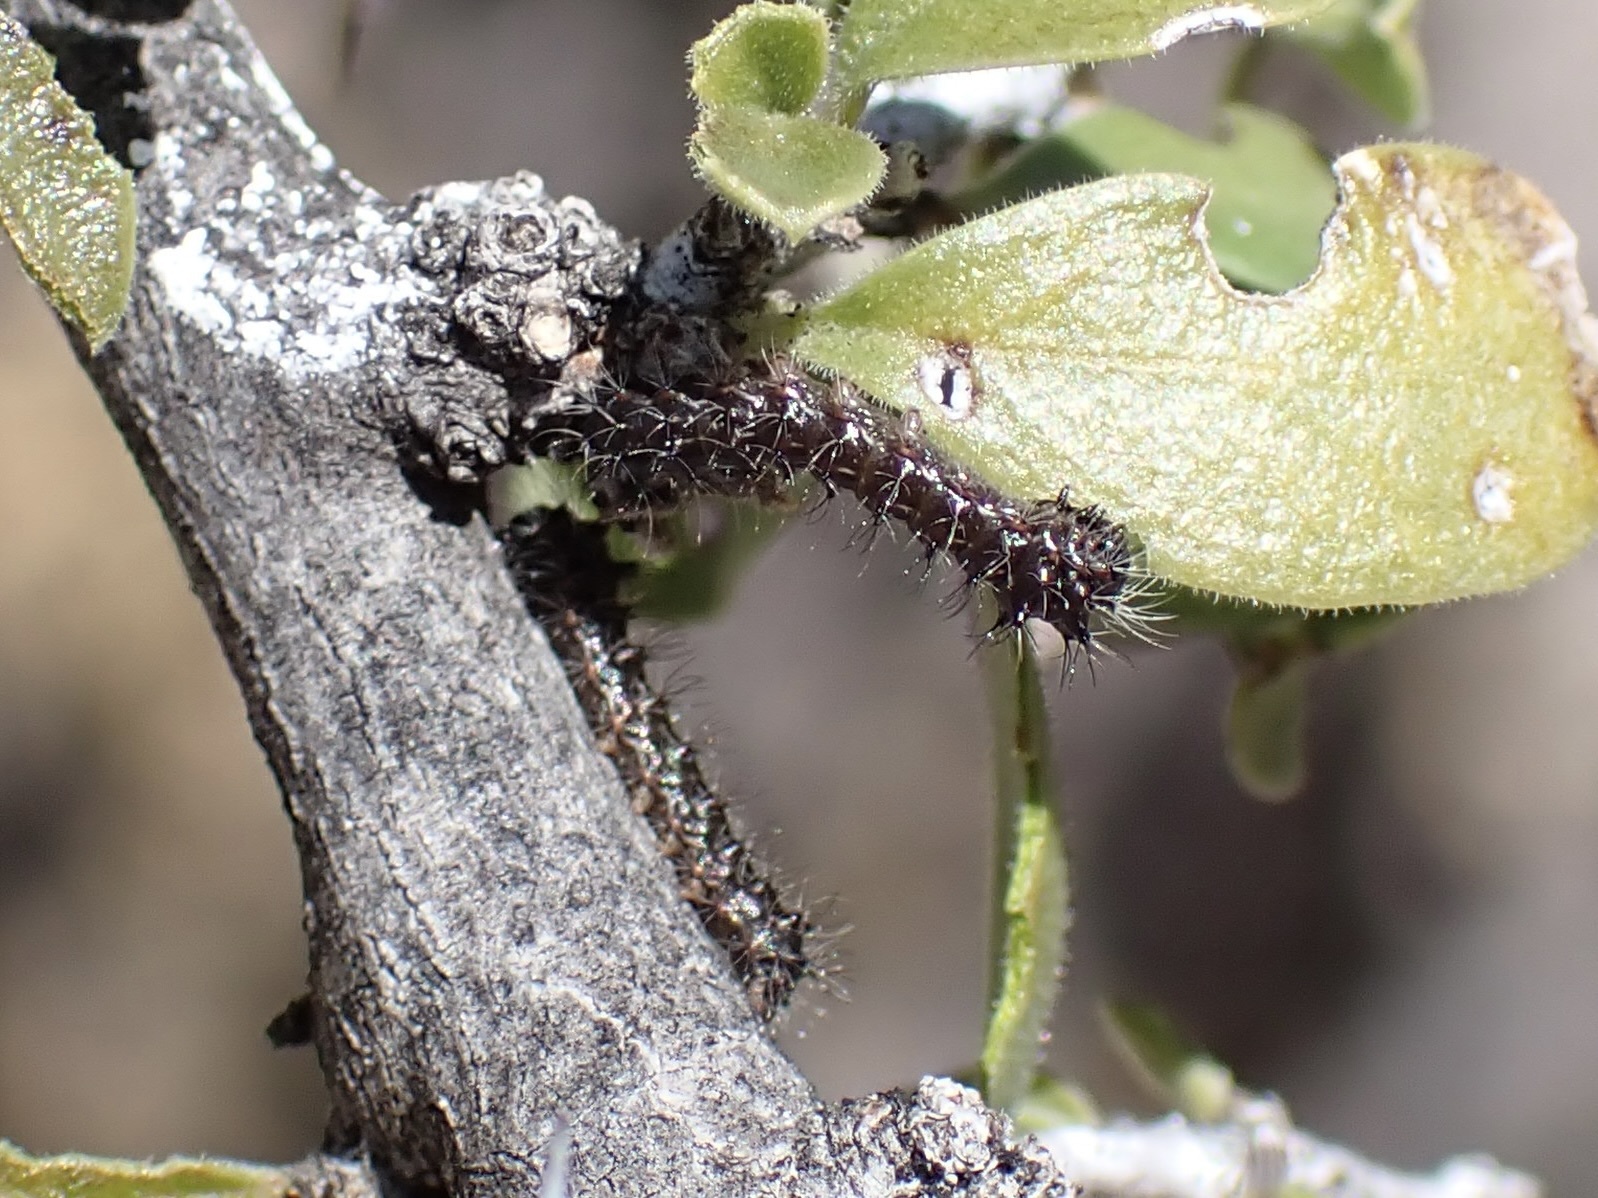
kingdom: Animalia
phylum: Arthropoda
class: Insecta
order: Lepidoptera
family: Saturniidae
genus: Saturnia
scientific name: Saturnia anona
